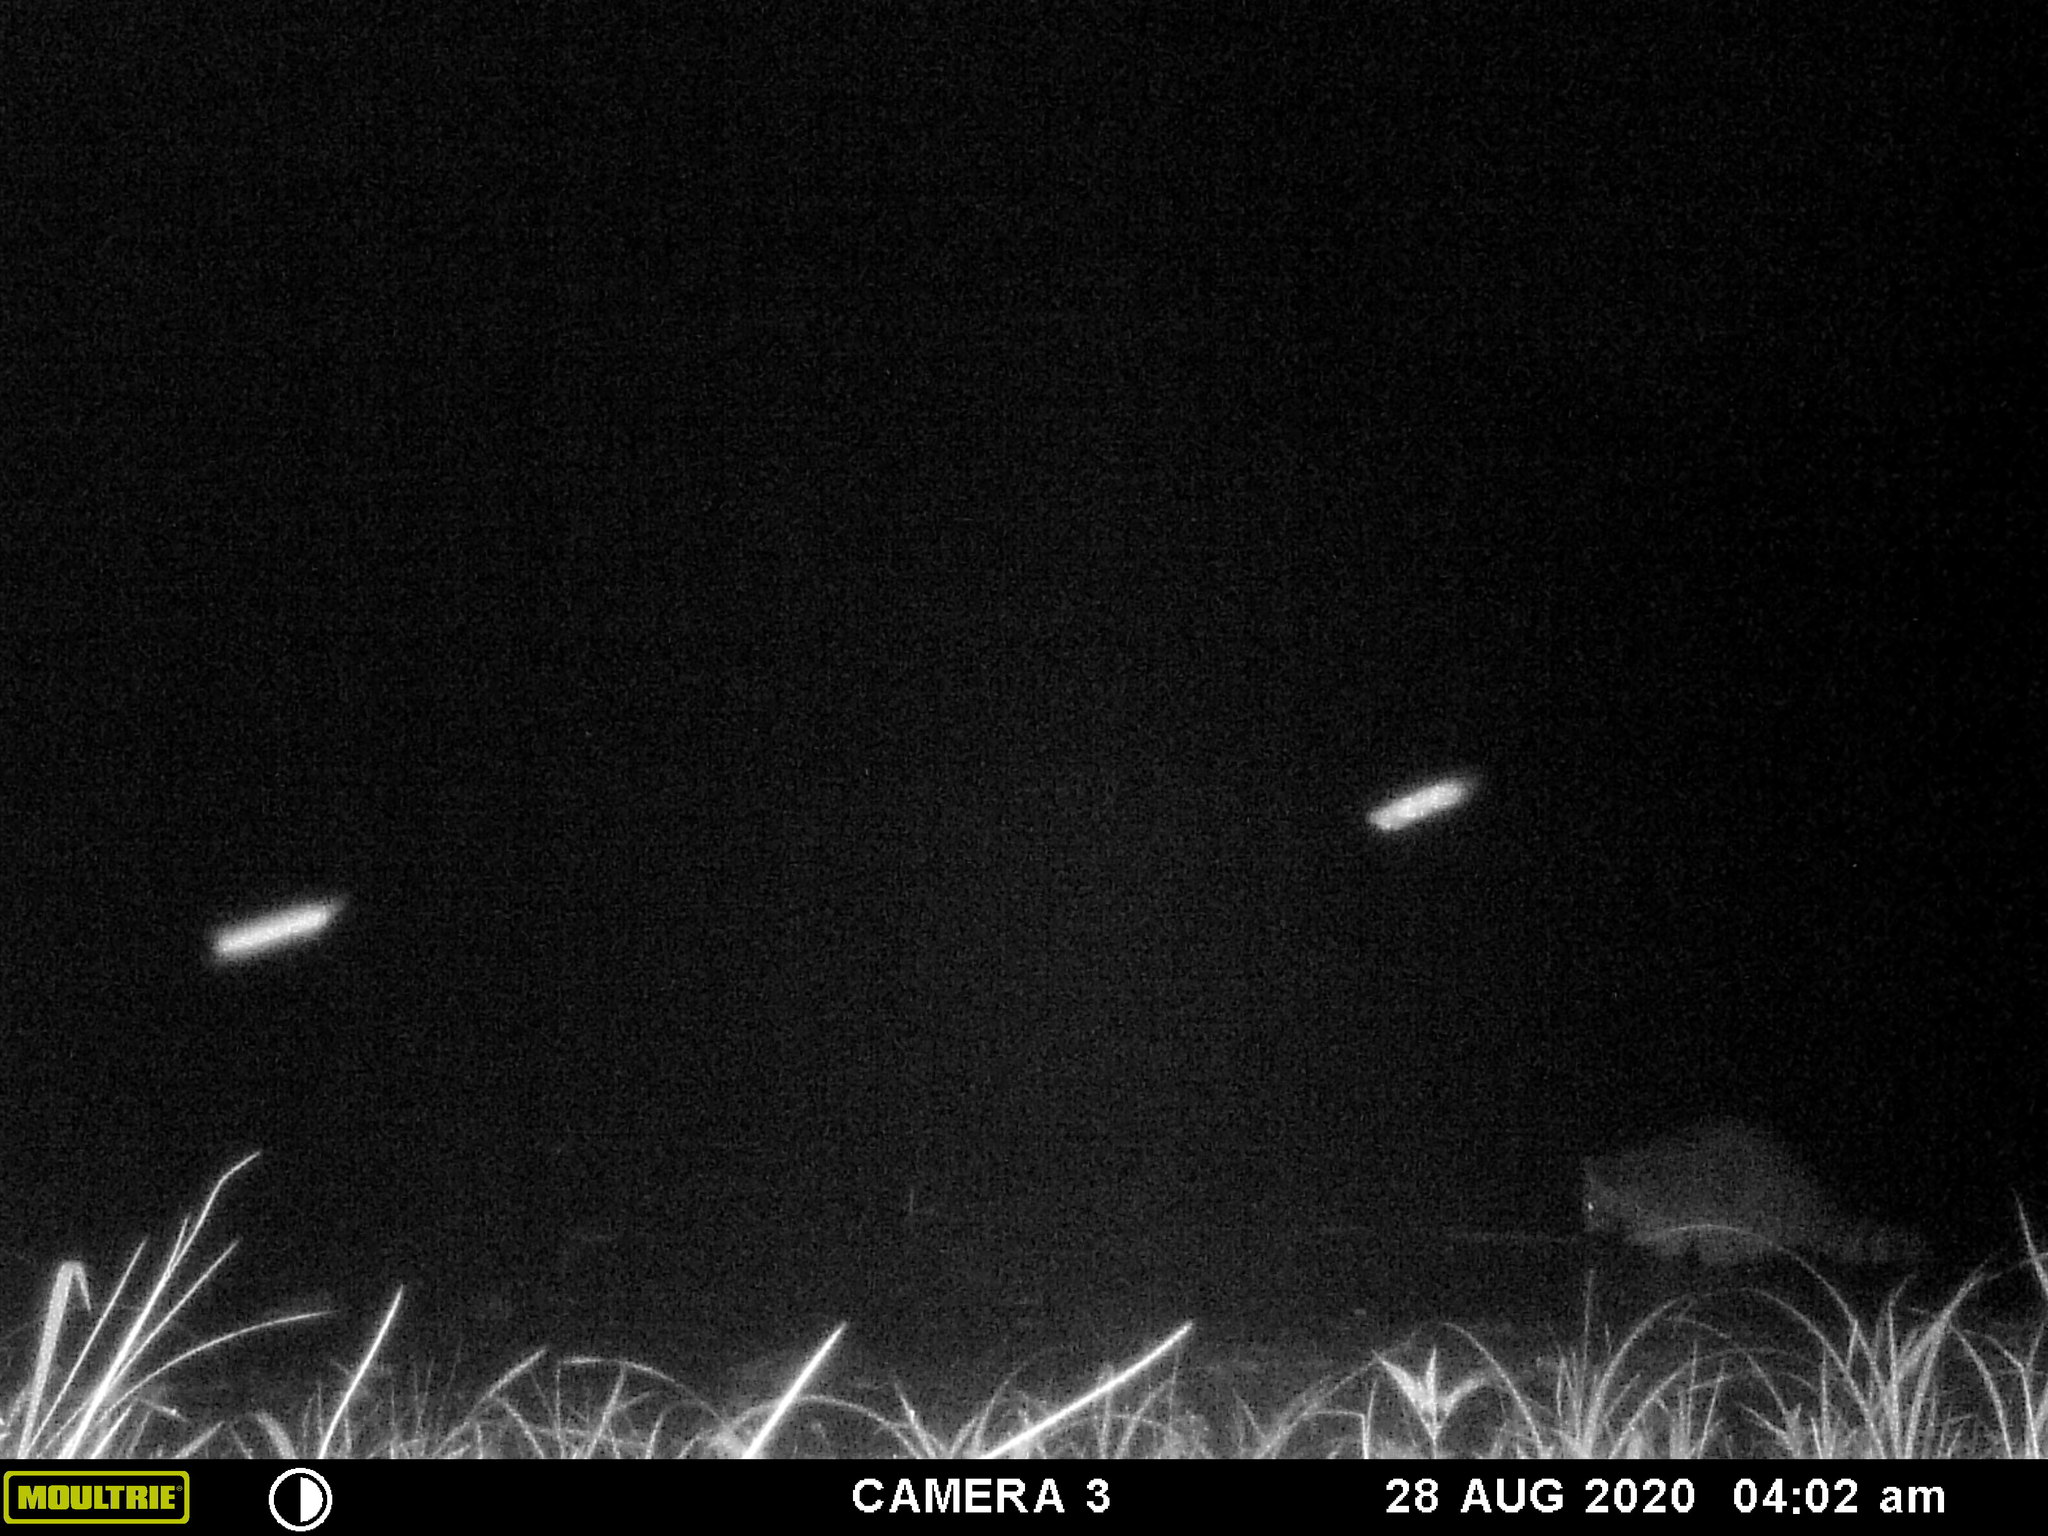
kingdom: Animalia
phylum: Chordata
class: Mammalia
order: Carnivora
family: Procyonidae
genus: Procyon
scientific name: Procyon lotor
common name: Raccoon
